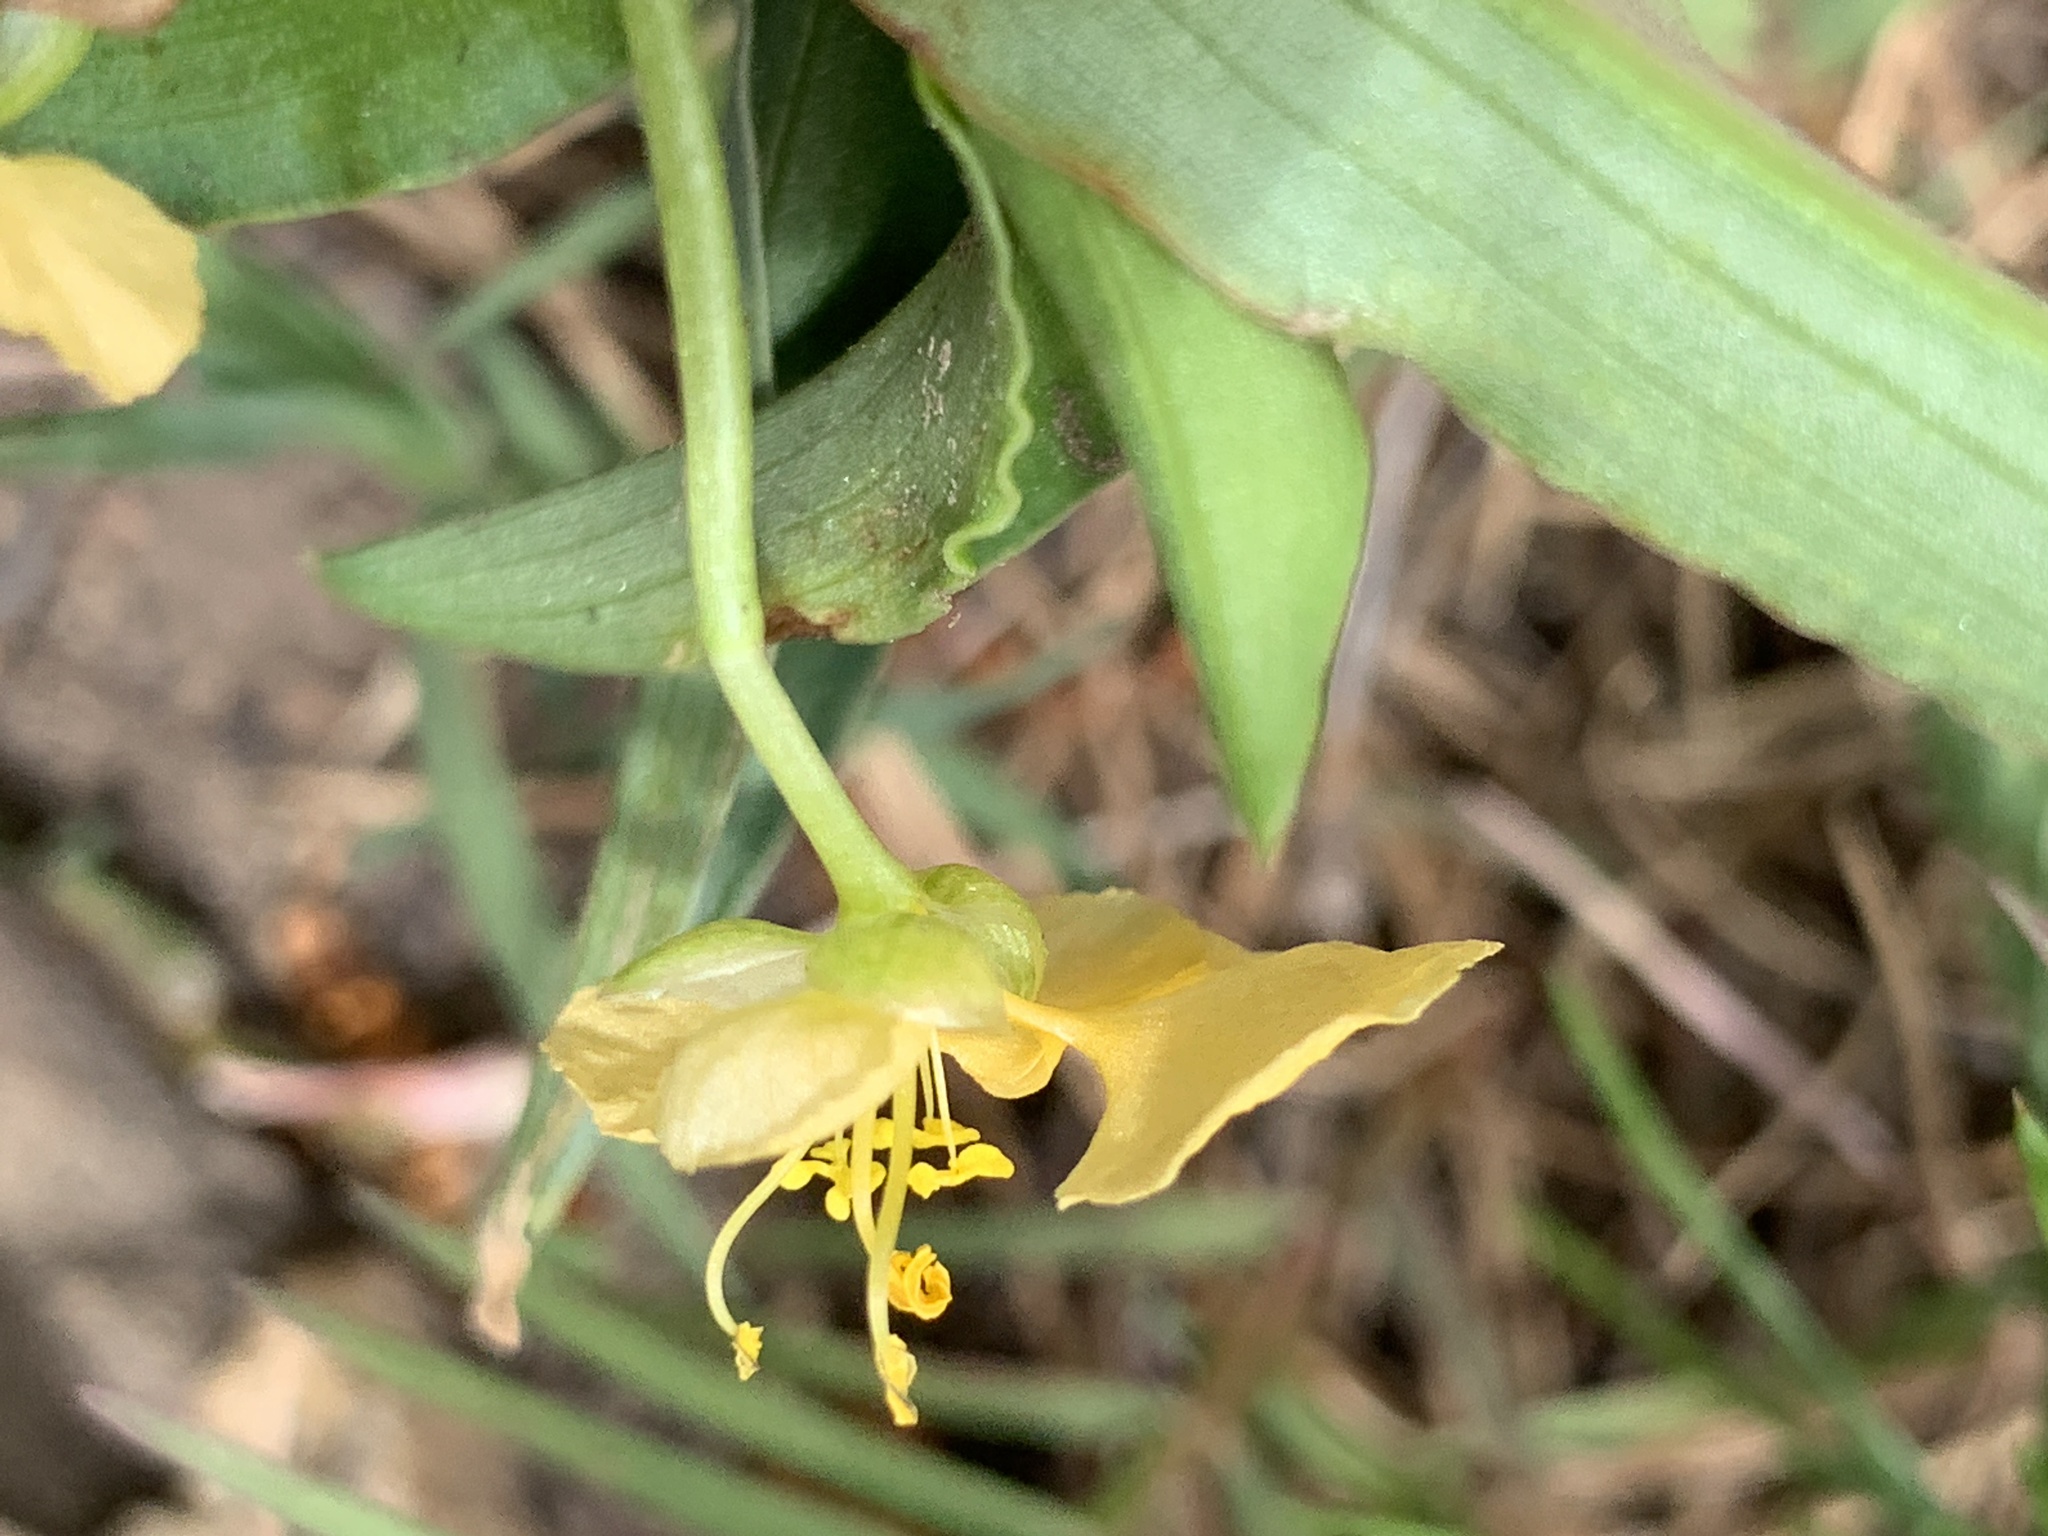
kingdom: Plantae
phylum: Tracheophyta
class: Liliopsida
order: Commelinales
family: Commelinaceae
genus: Commelina
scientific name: Commelina africana
